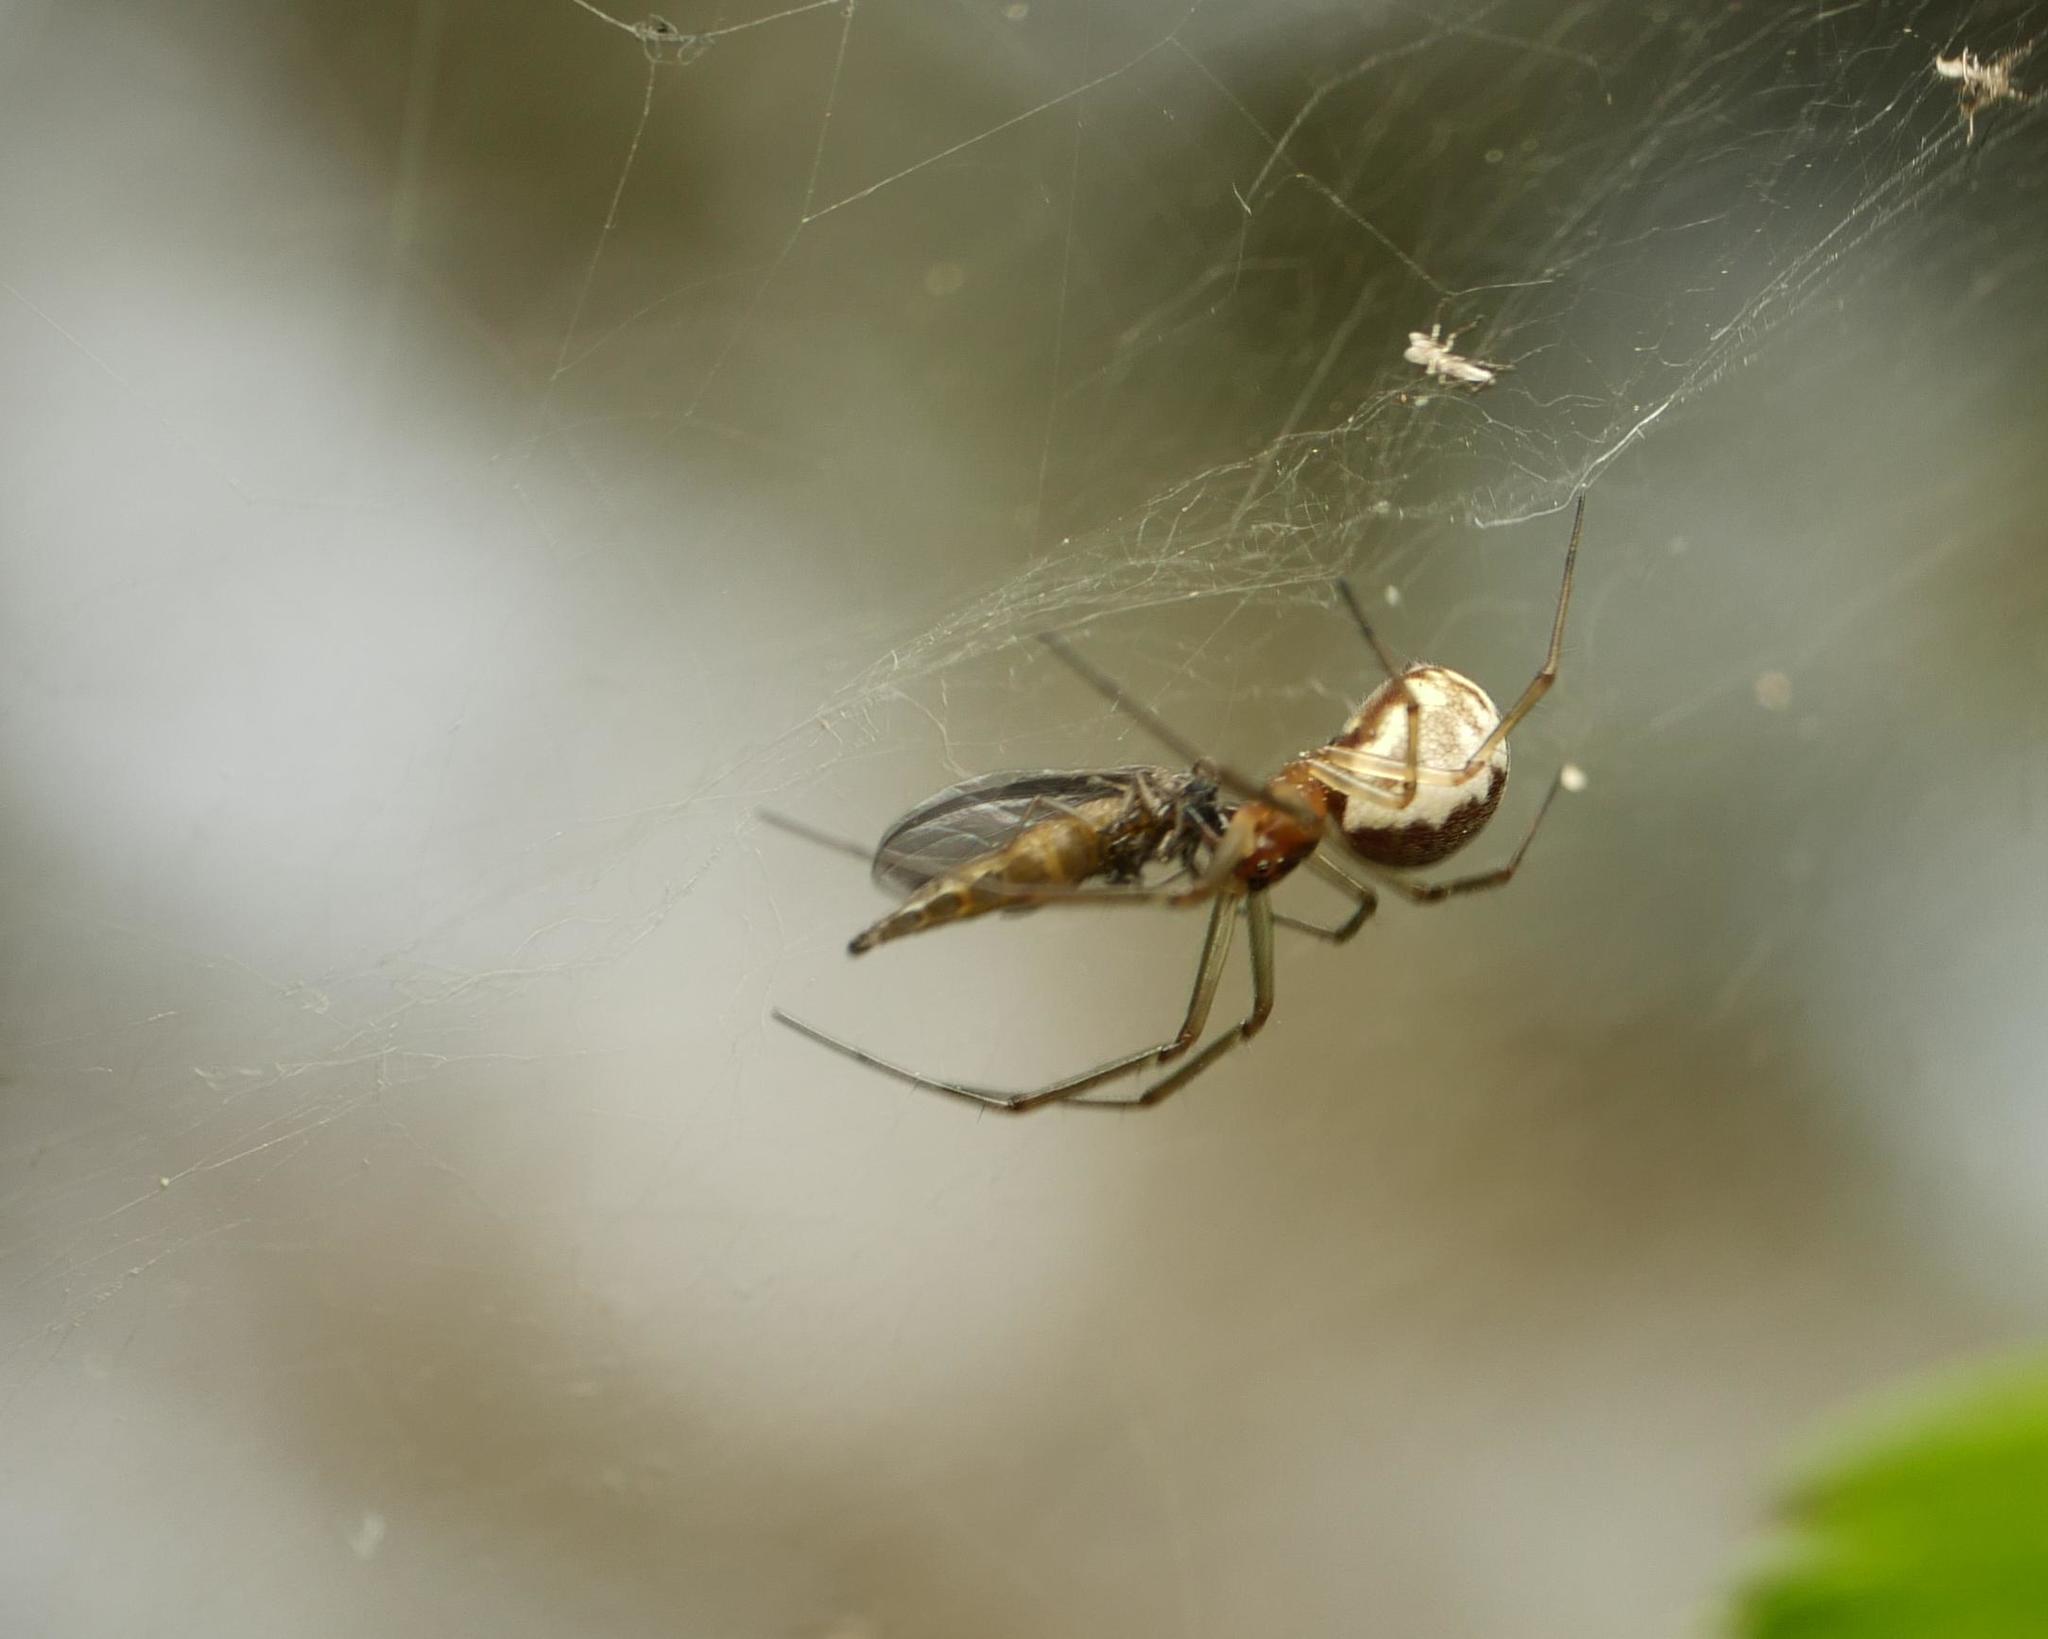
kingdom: Animalia
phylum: Arthropoda
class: Arachnida
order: Araneae
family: Linyphiidae
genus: Neriene
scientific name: Neriene peltata
